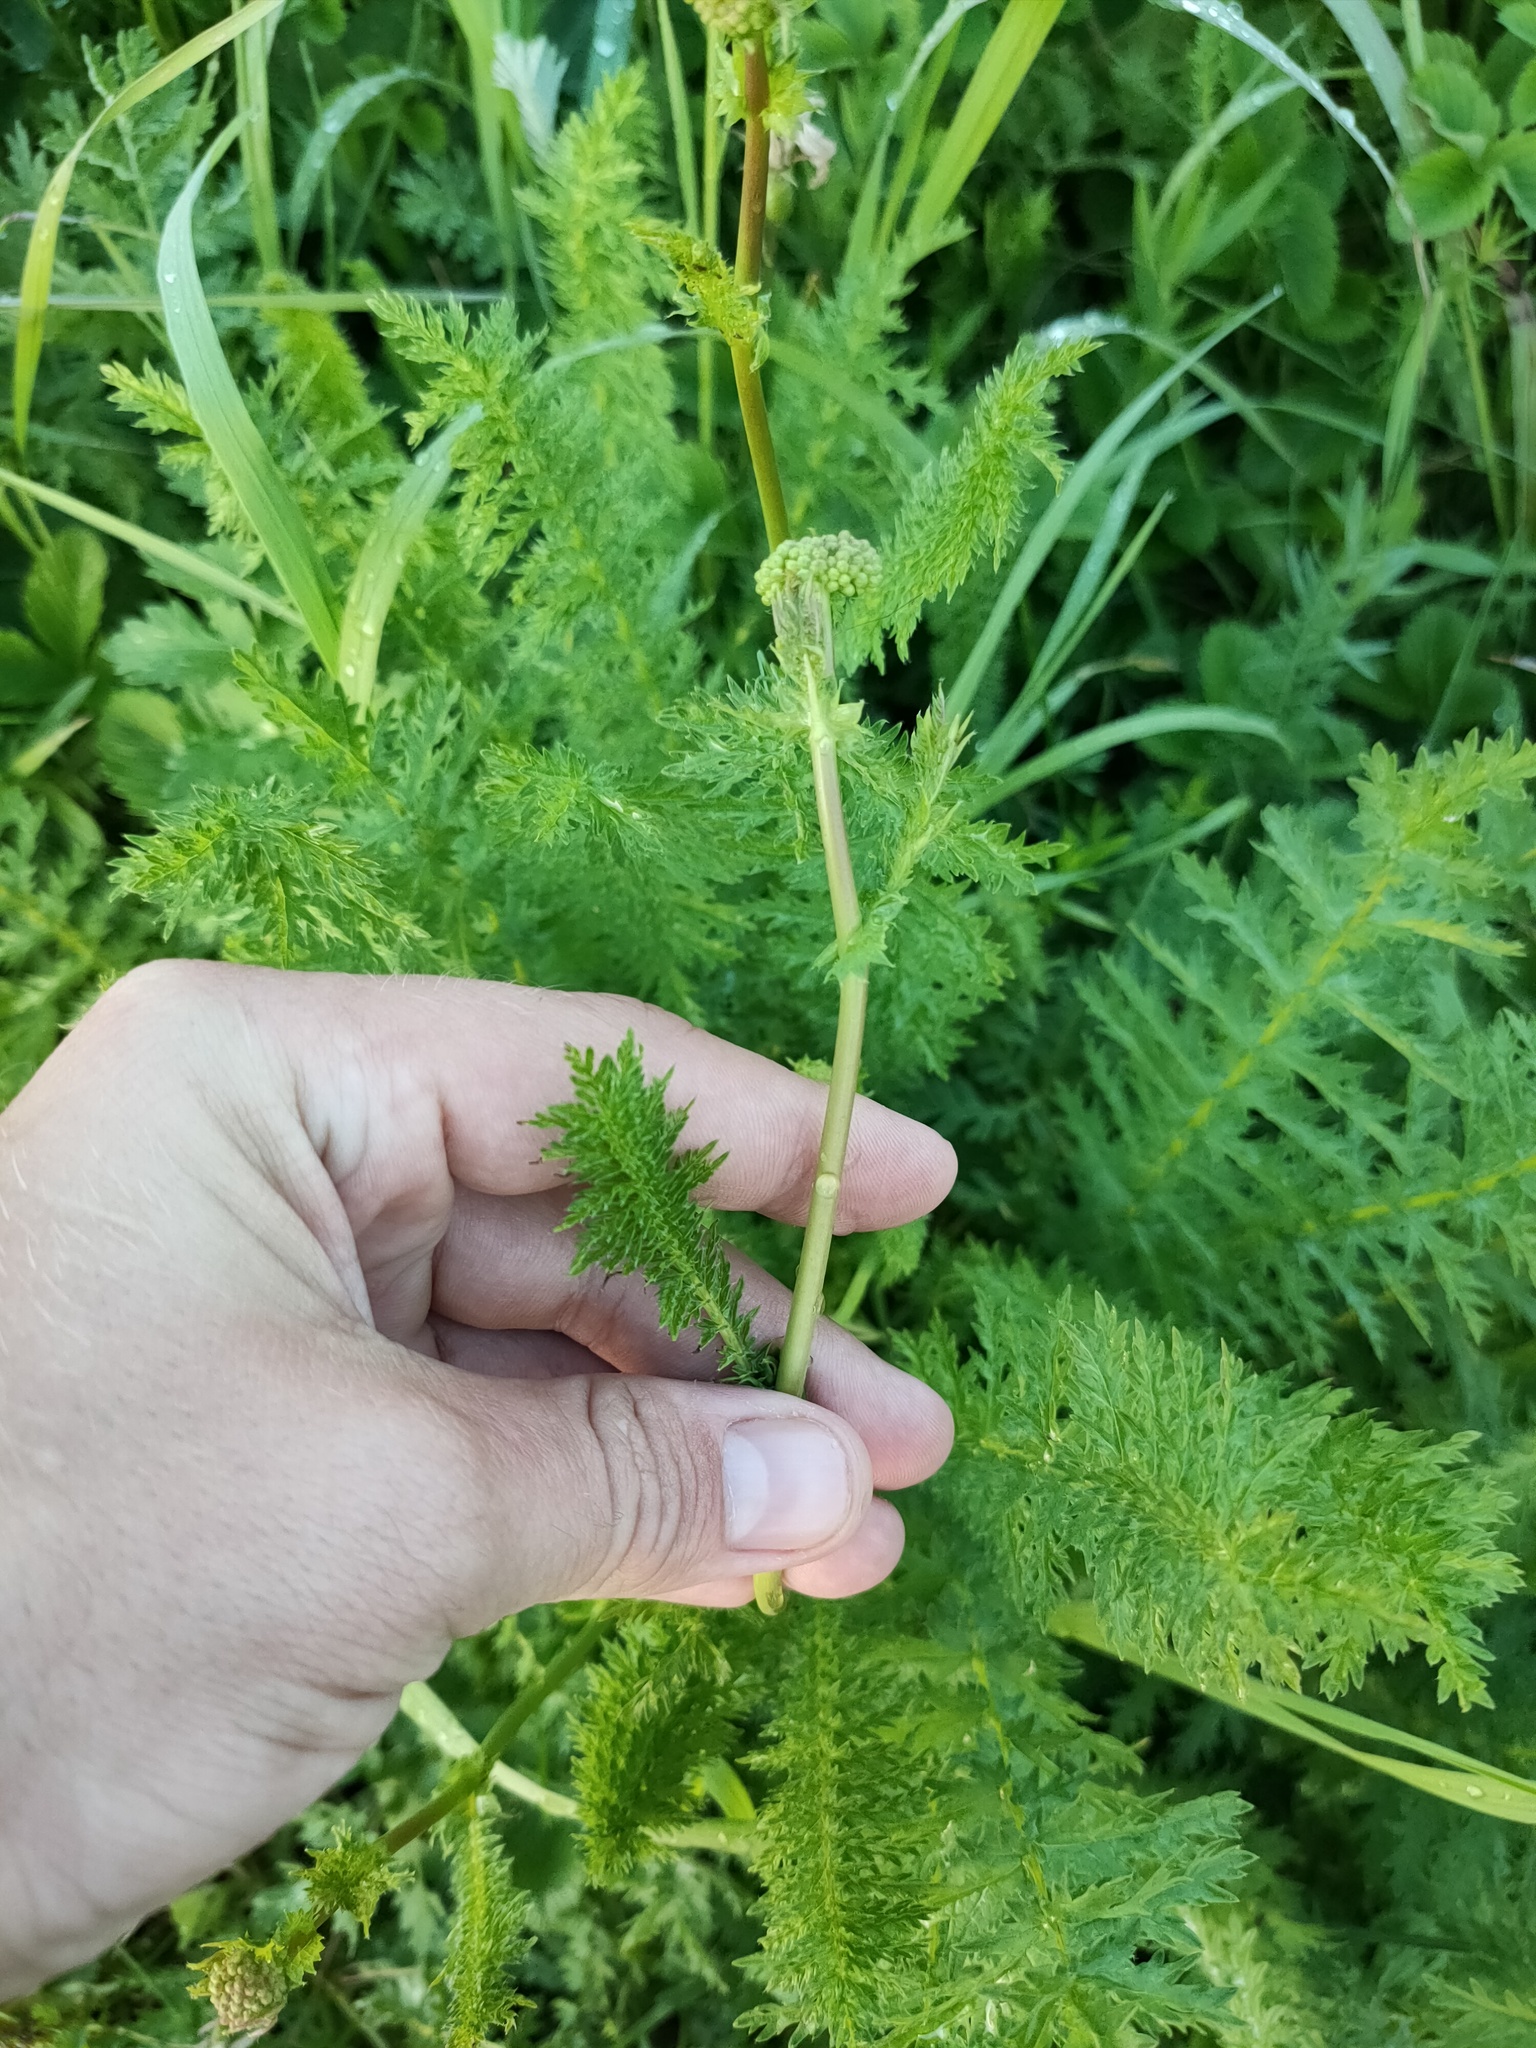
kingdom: Plantae
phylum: Tracheophyta
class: Magnoliopsida
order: Rosales
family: Rosaceae
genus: Filipendula
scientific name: Filipendula vulgaris
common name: Dropwort
